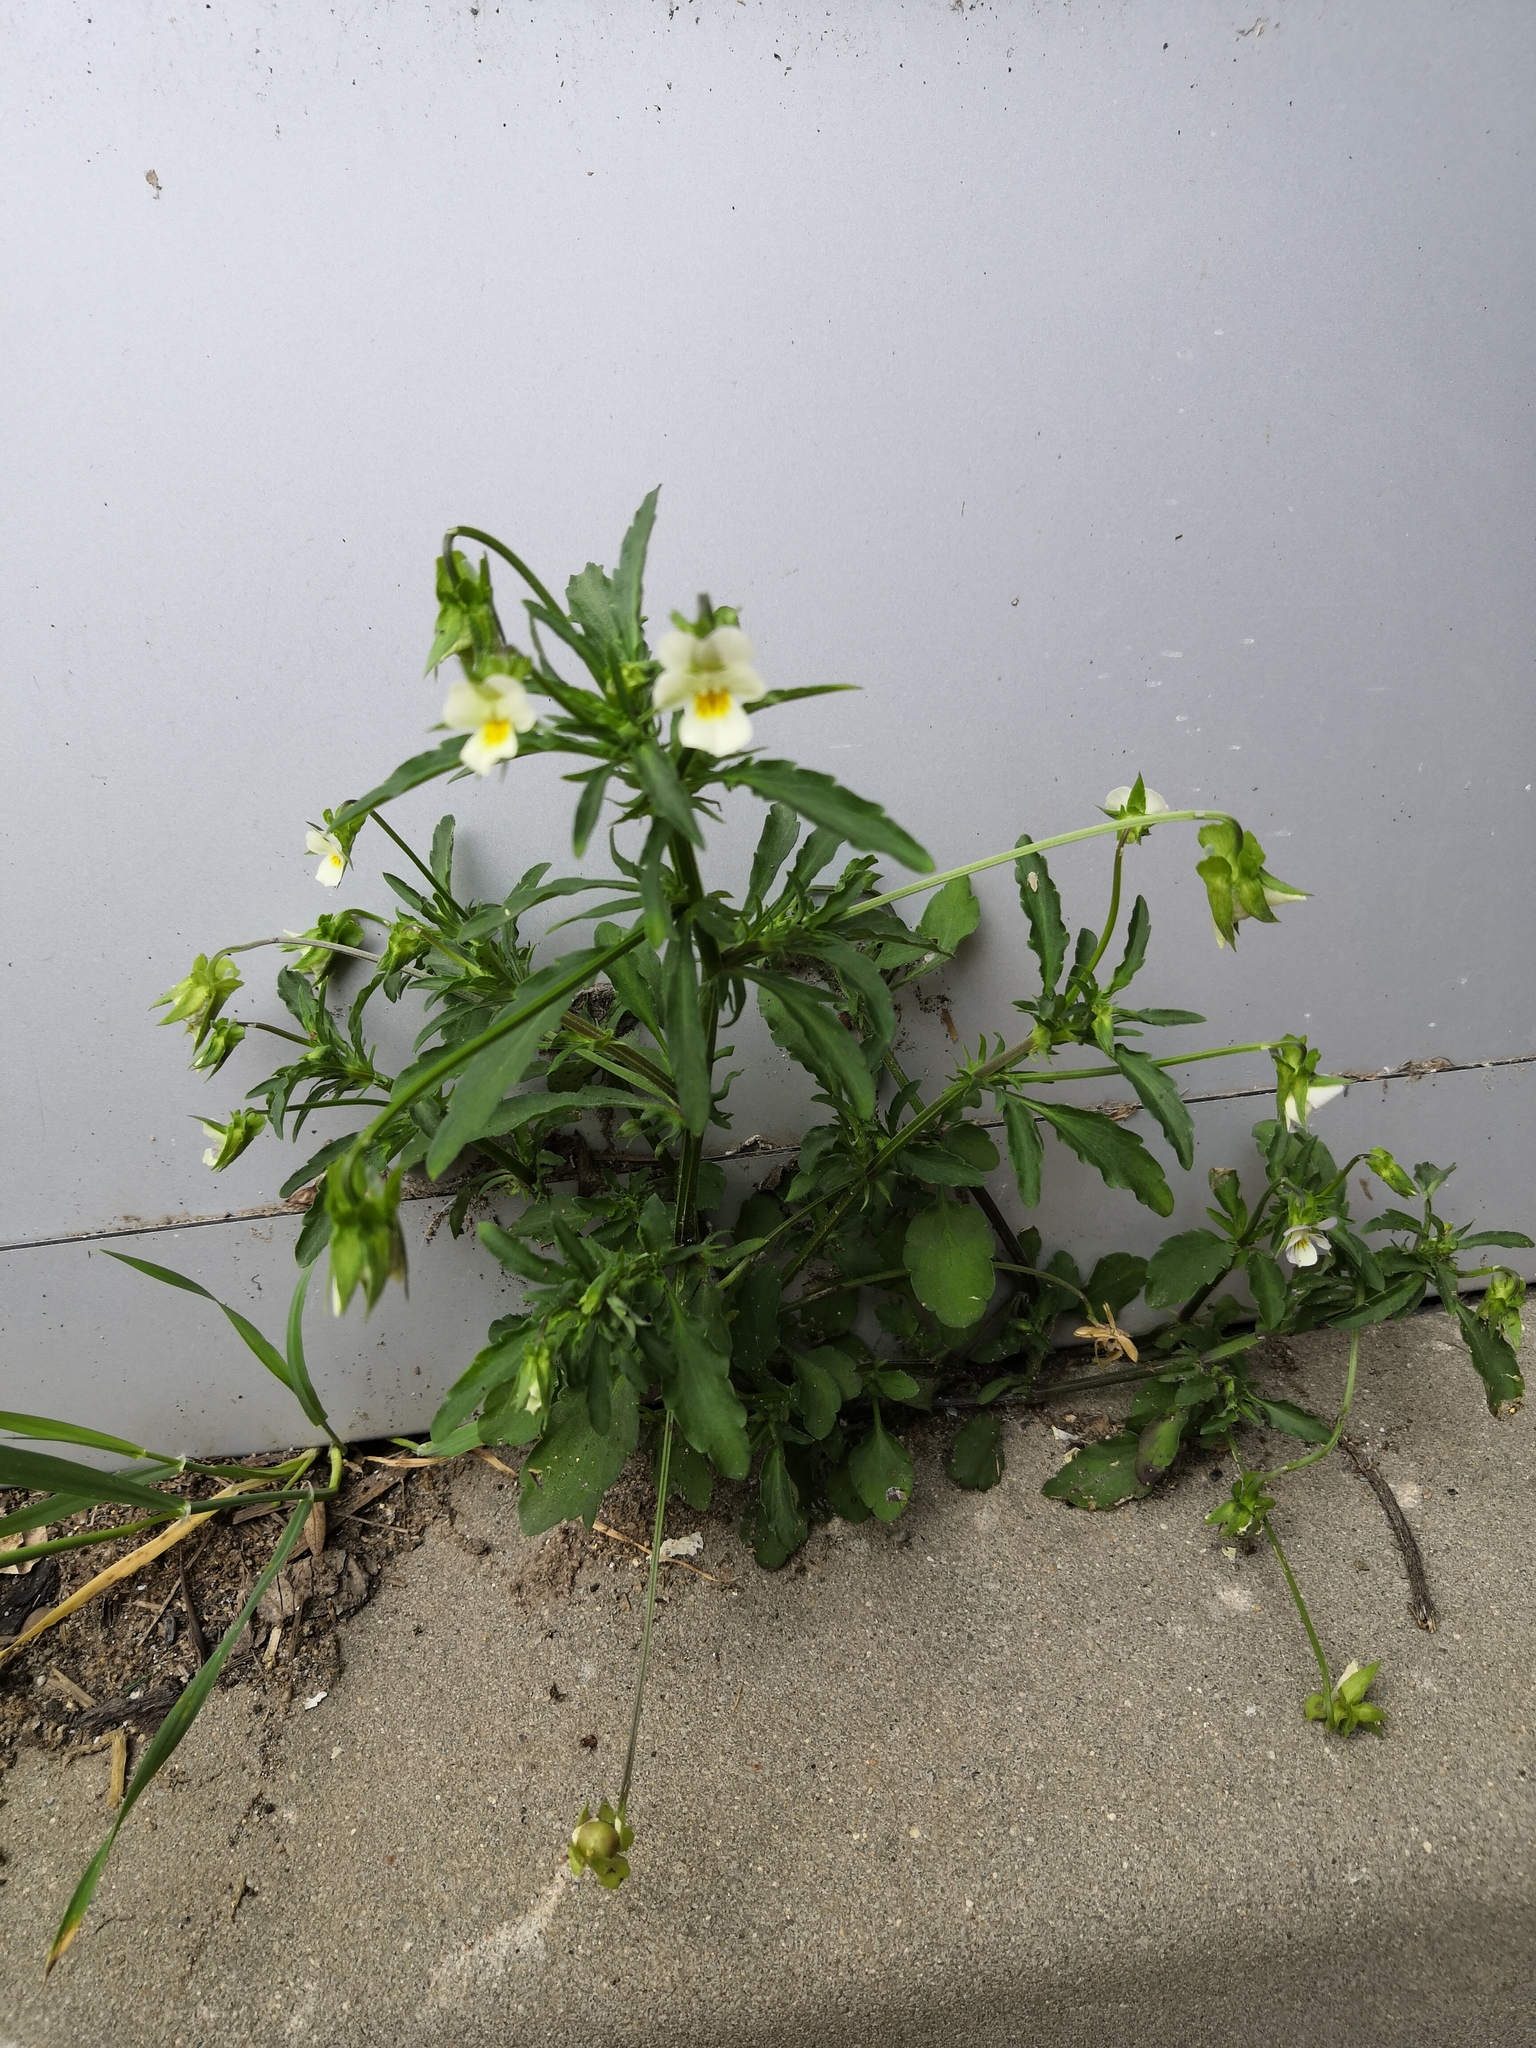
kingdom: Plantae
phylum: Tracheophyta
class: Magnoliopsida
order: Malpighiales
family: Violaceae
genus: Viola
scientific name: Viola arvensis
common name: Field pansy
